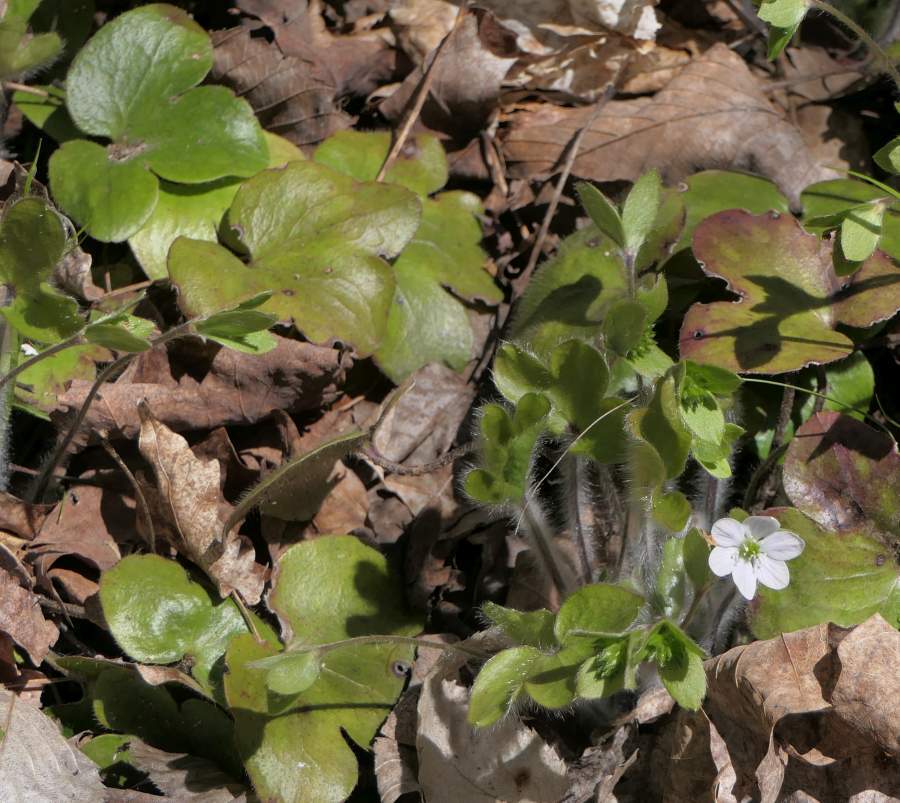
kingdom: Plantae
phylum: Tracheophyta
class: Magnoliopsida
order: Ranunculales
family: Ranunculaceae
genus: Hepatica
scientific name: Hepatica americana
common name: American hepatica
